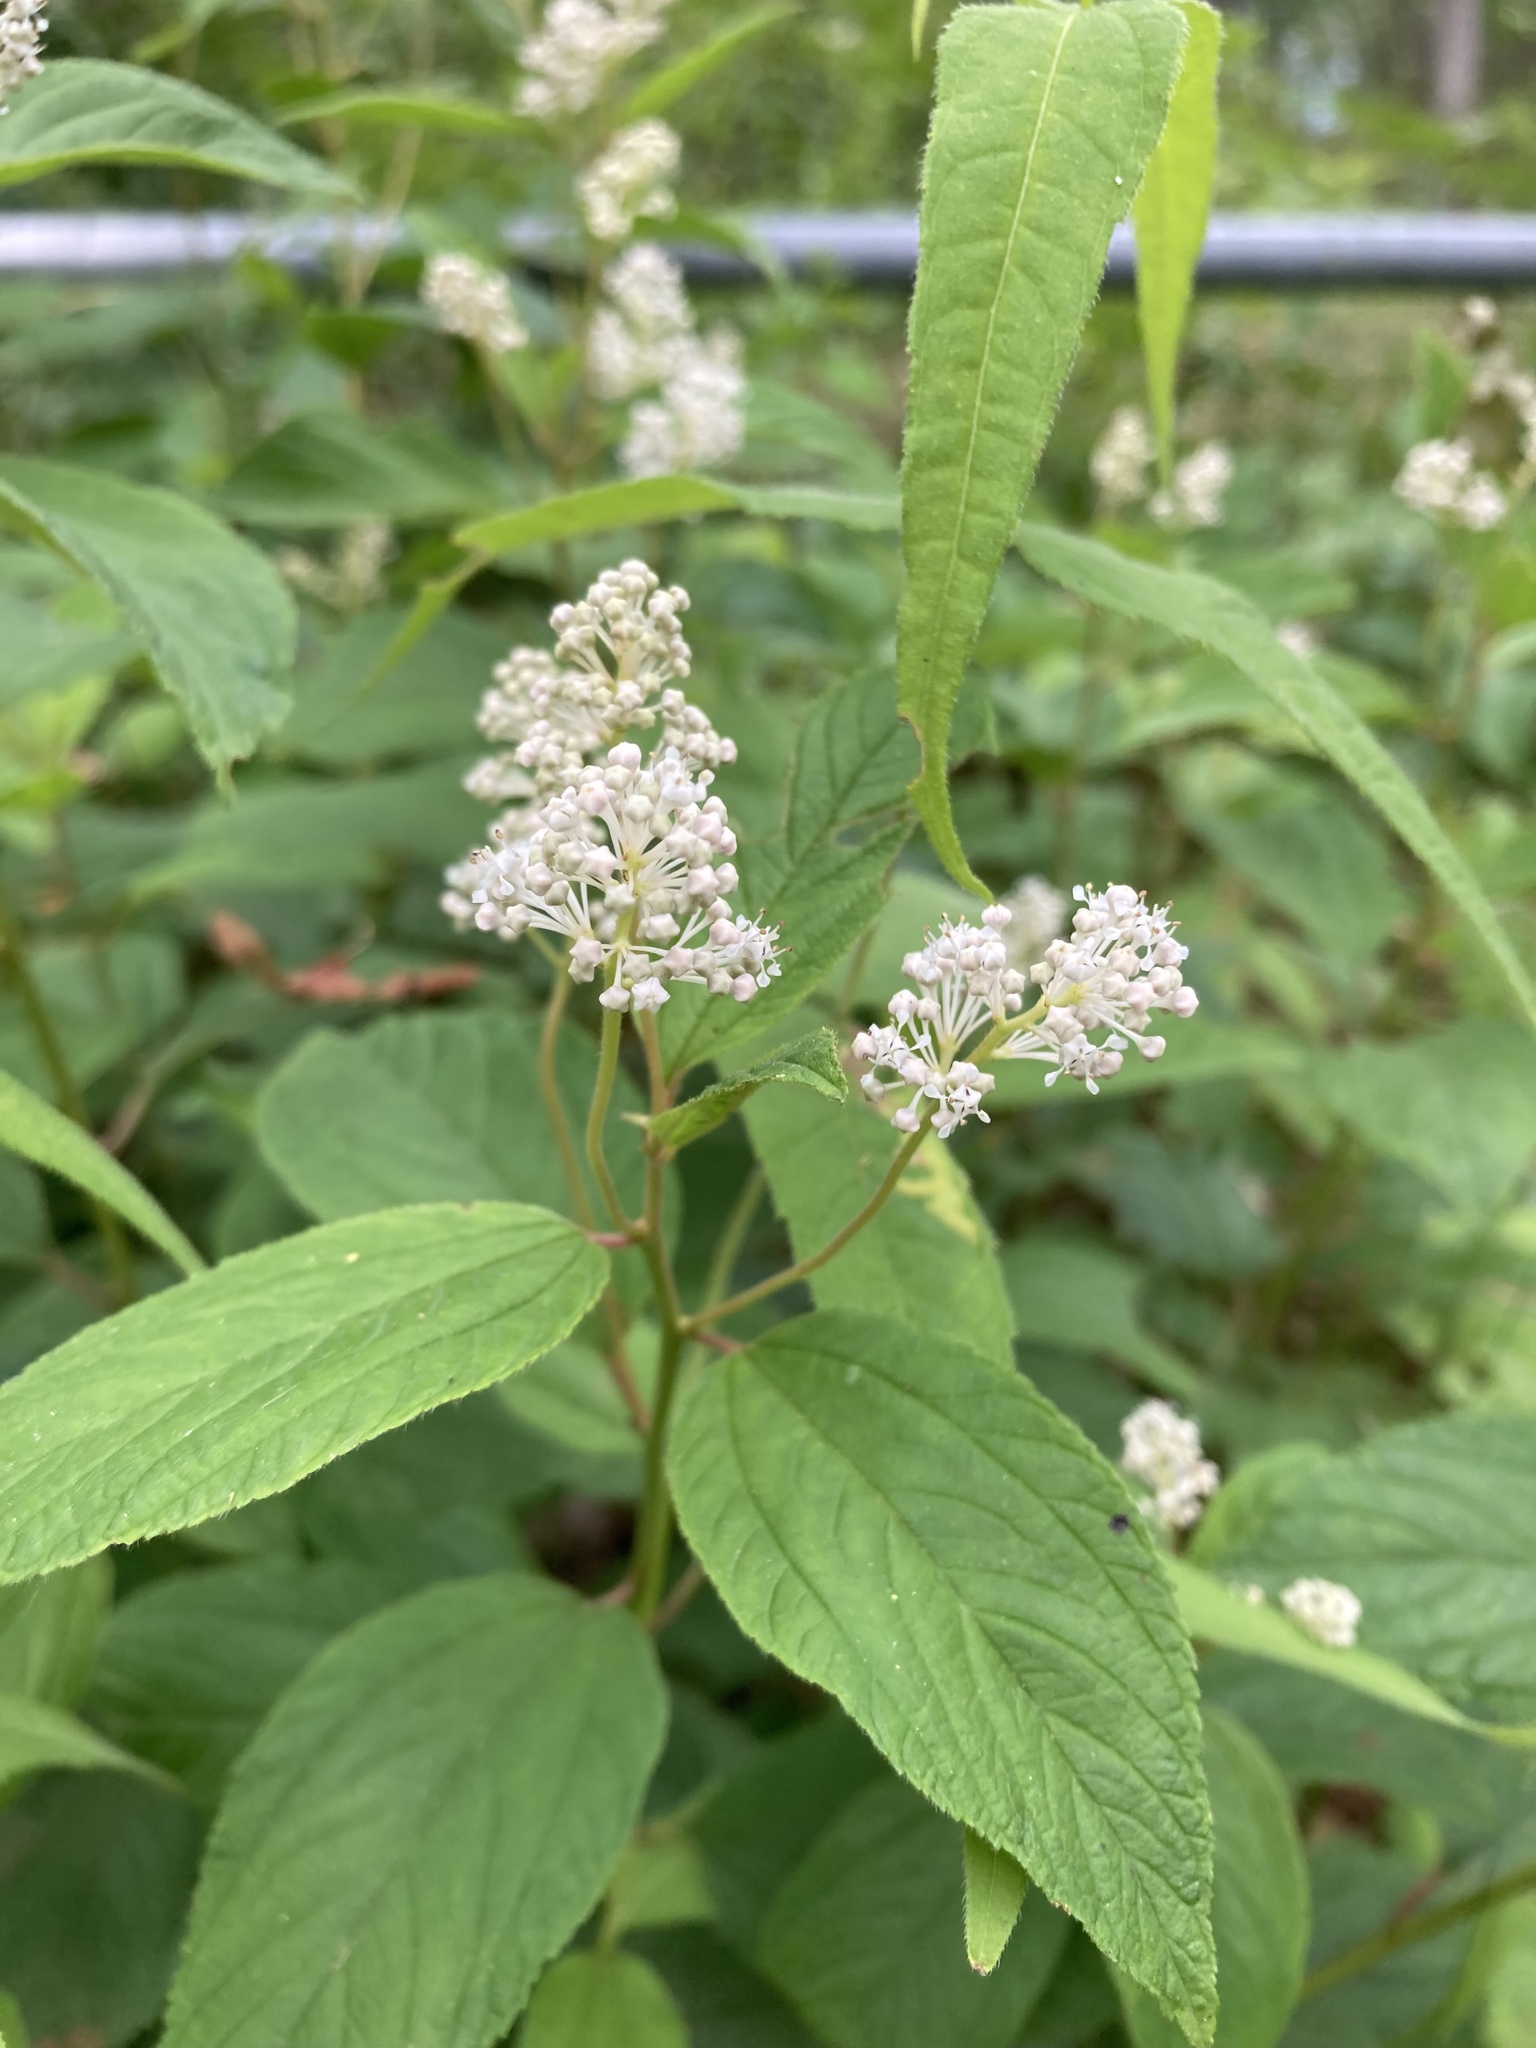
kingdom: Plantae
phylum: Tracheophyta
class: Magnoliopsida
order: Rosales
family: Rhamnaceae
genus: Ceanothus
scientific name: Ceanothus americanus
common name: Redroot
